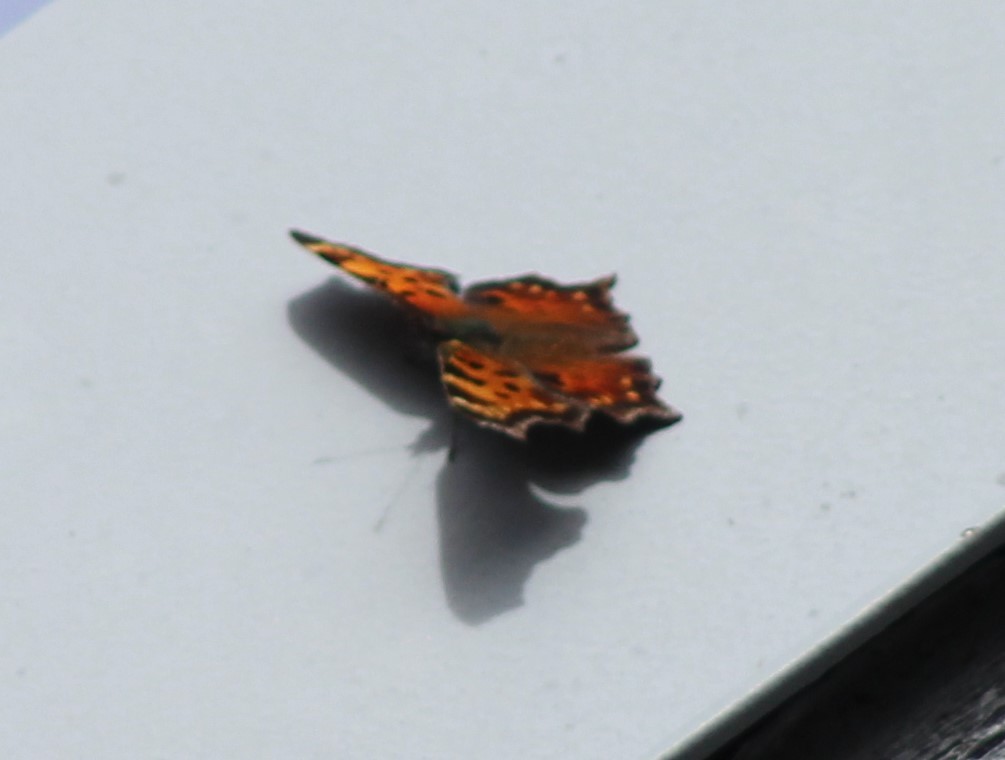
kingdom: Animalia
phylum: Arthropoda
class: Insecta
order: Lepidoptera
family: Nymphalidae
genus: Polygonia
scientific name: Polygonia faunus
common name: Green comma
